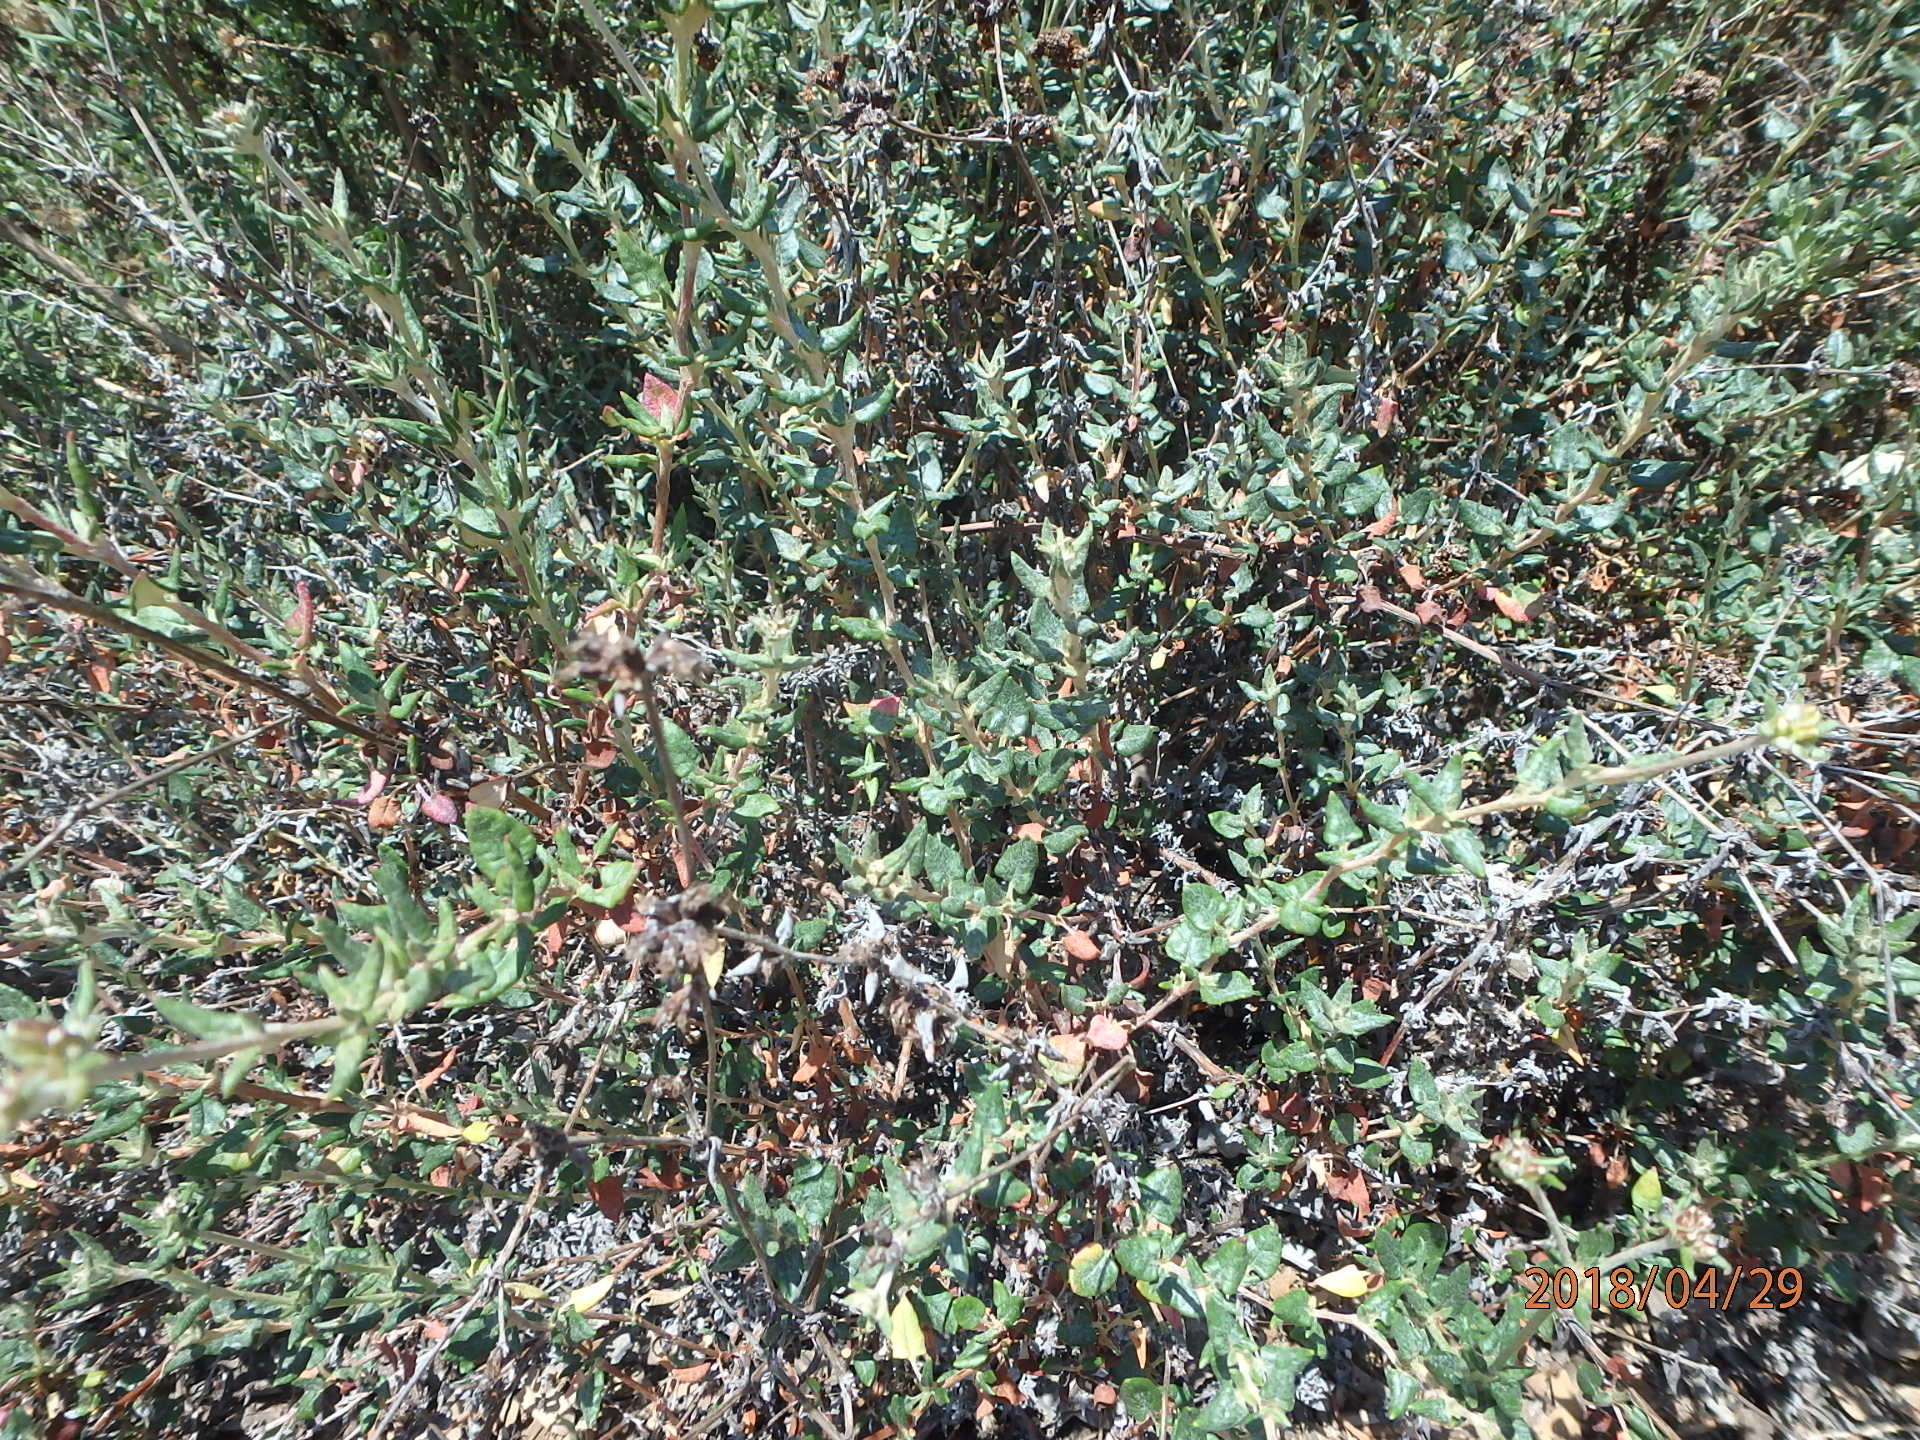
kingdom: Plantae
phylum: Tracheophyta
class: Magnoliopsida
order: Caryophyllales
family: Polygonaceae
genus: Eriogonum
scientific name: Eriogonum parvifolium
